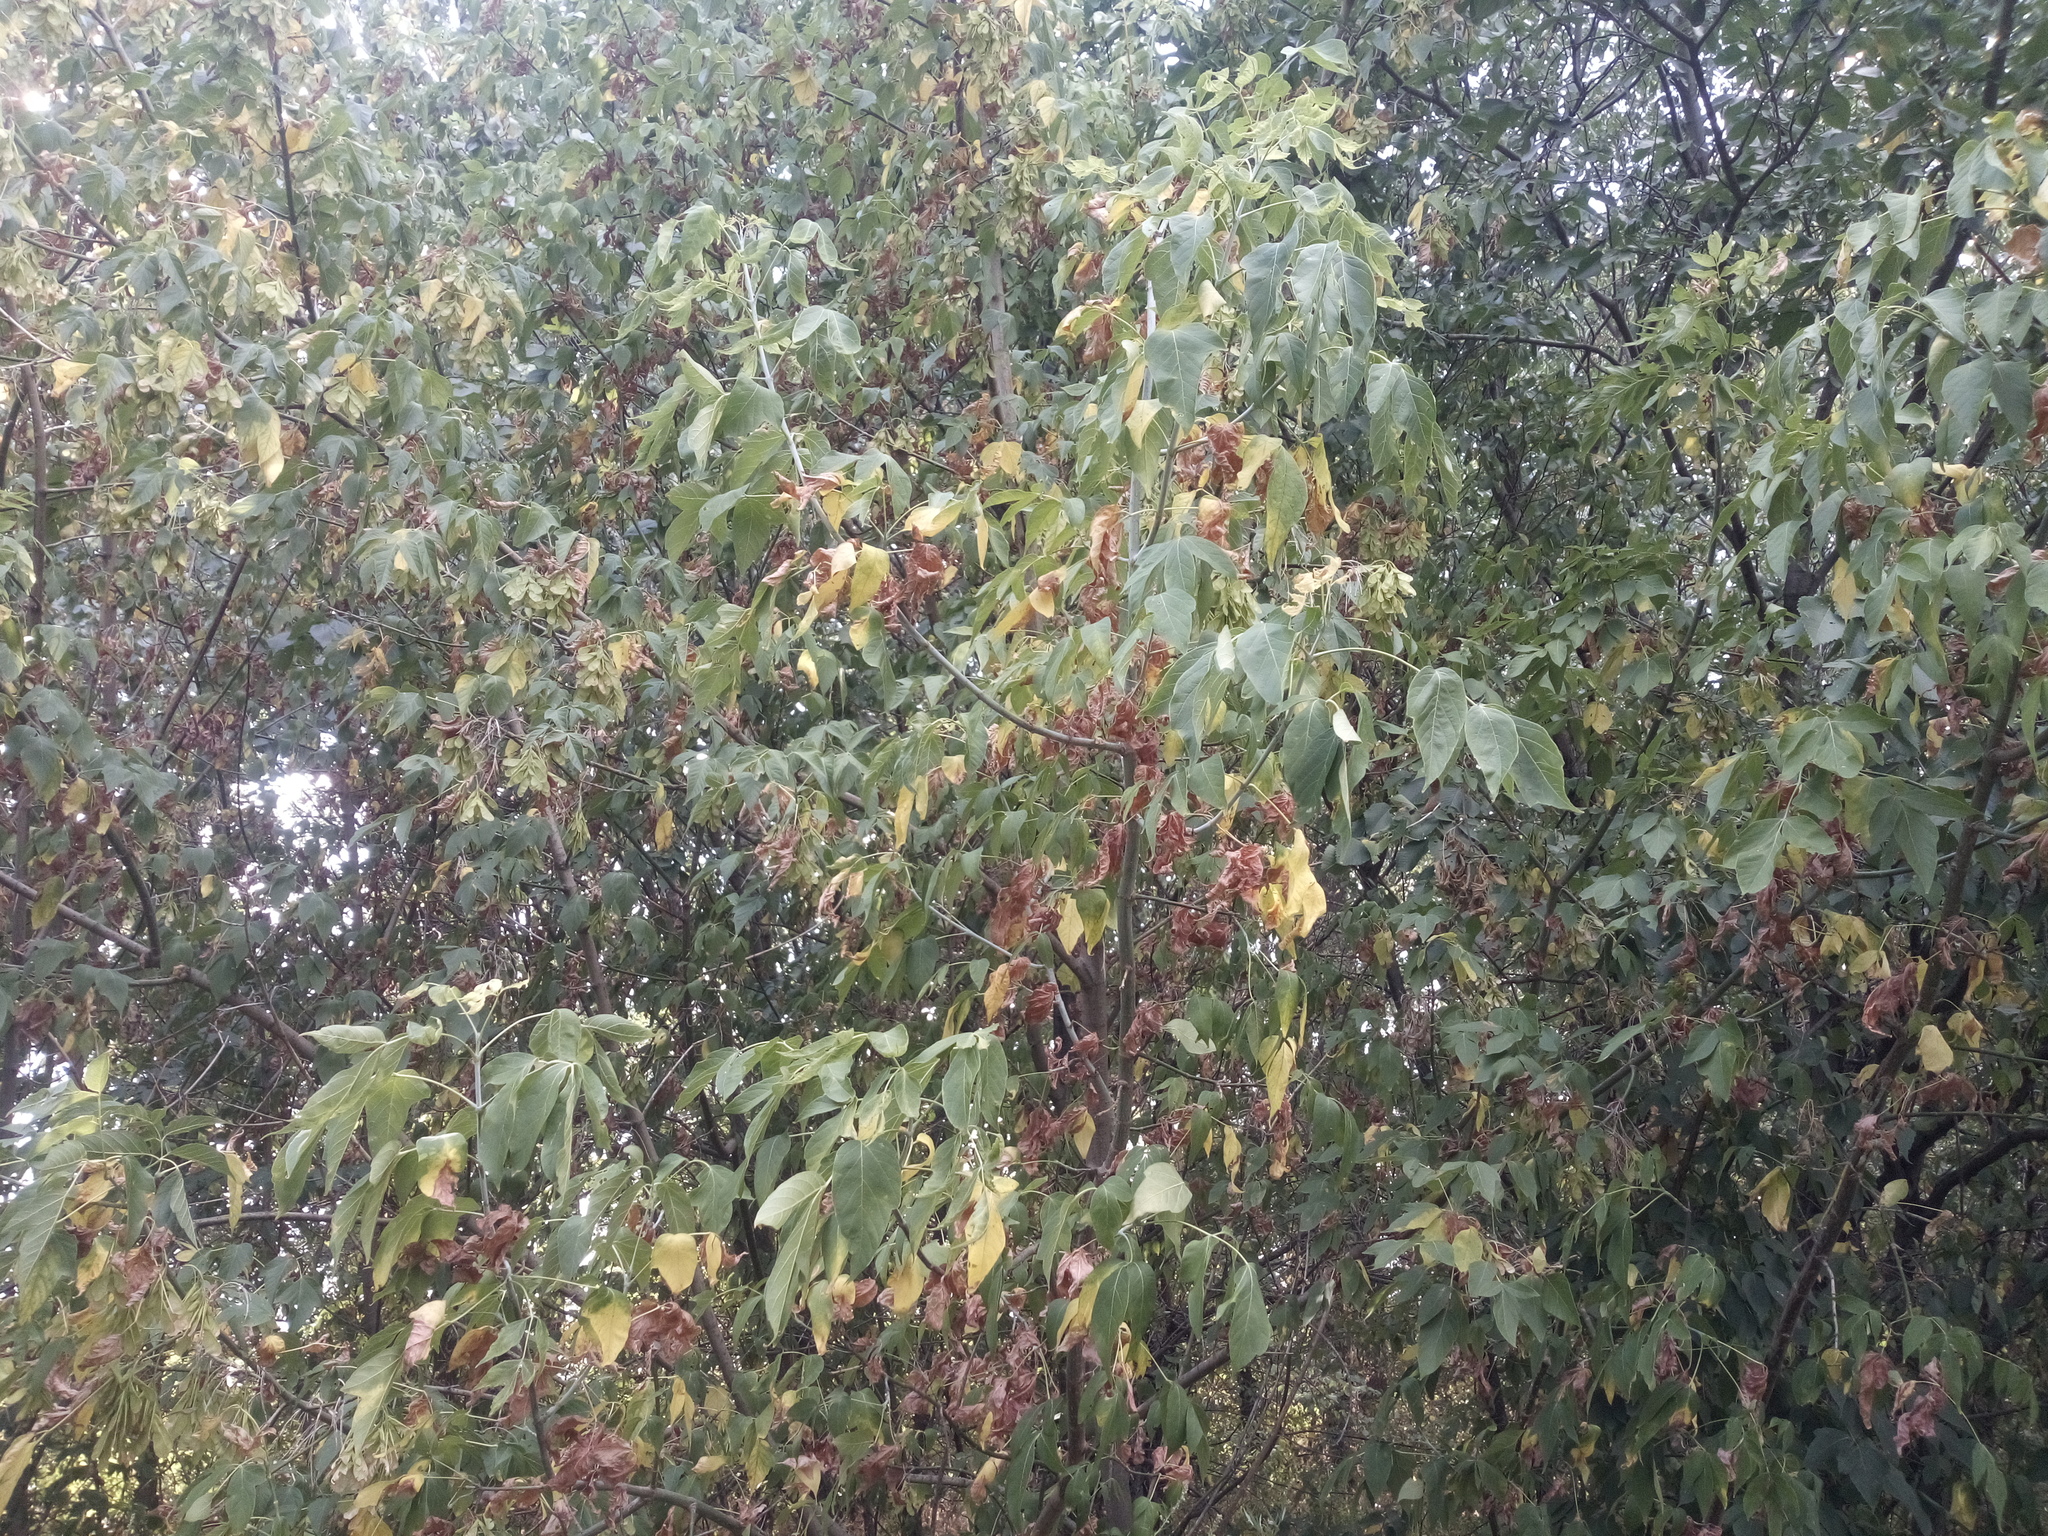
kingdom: Plantae
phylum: Tracheophyta
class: Magnoliopsida
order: Sapindales
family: Sapindaceae
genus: Acer
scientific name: Acer negundo
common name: Ashleaf maple
